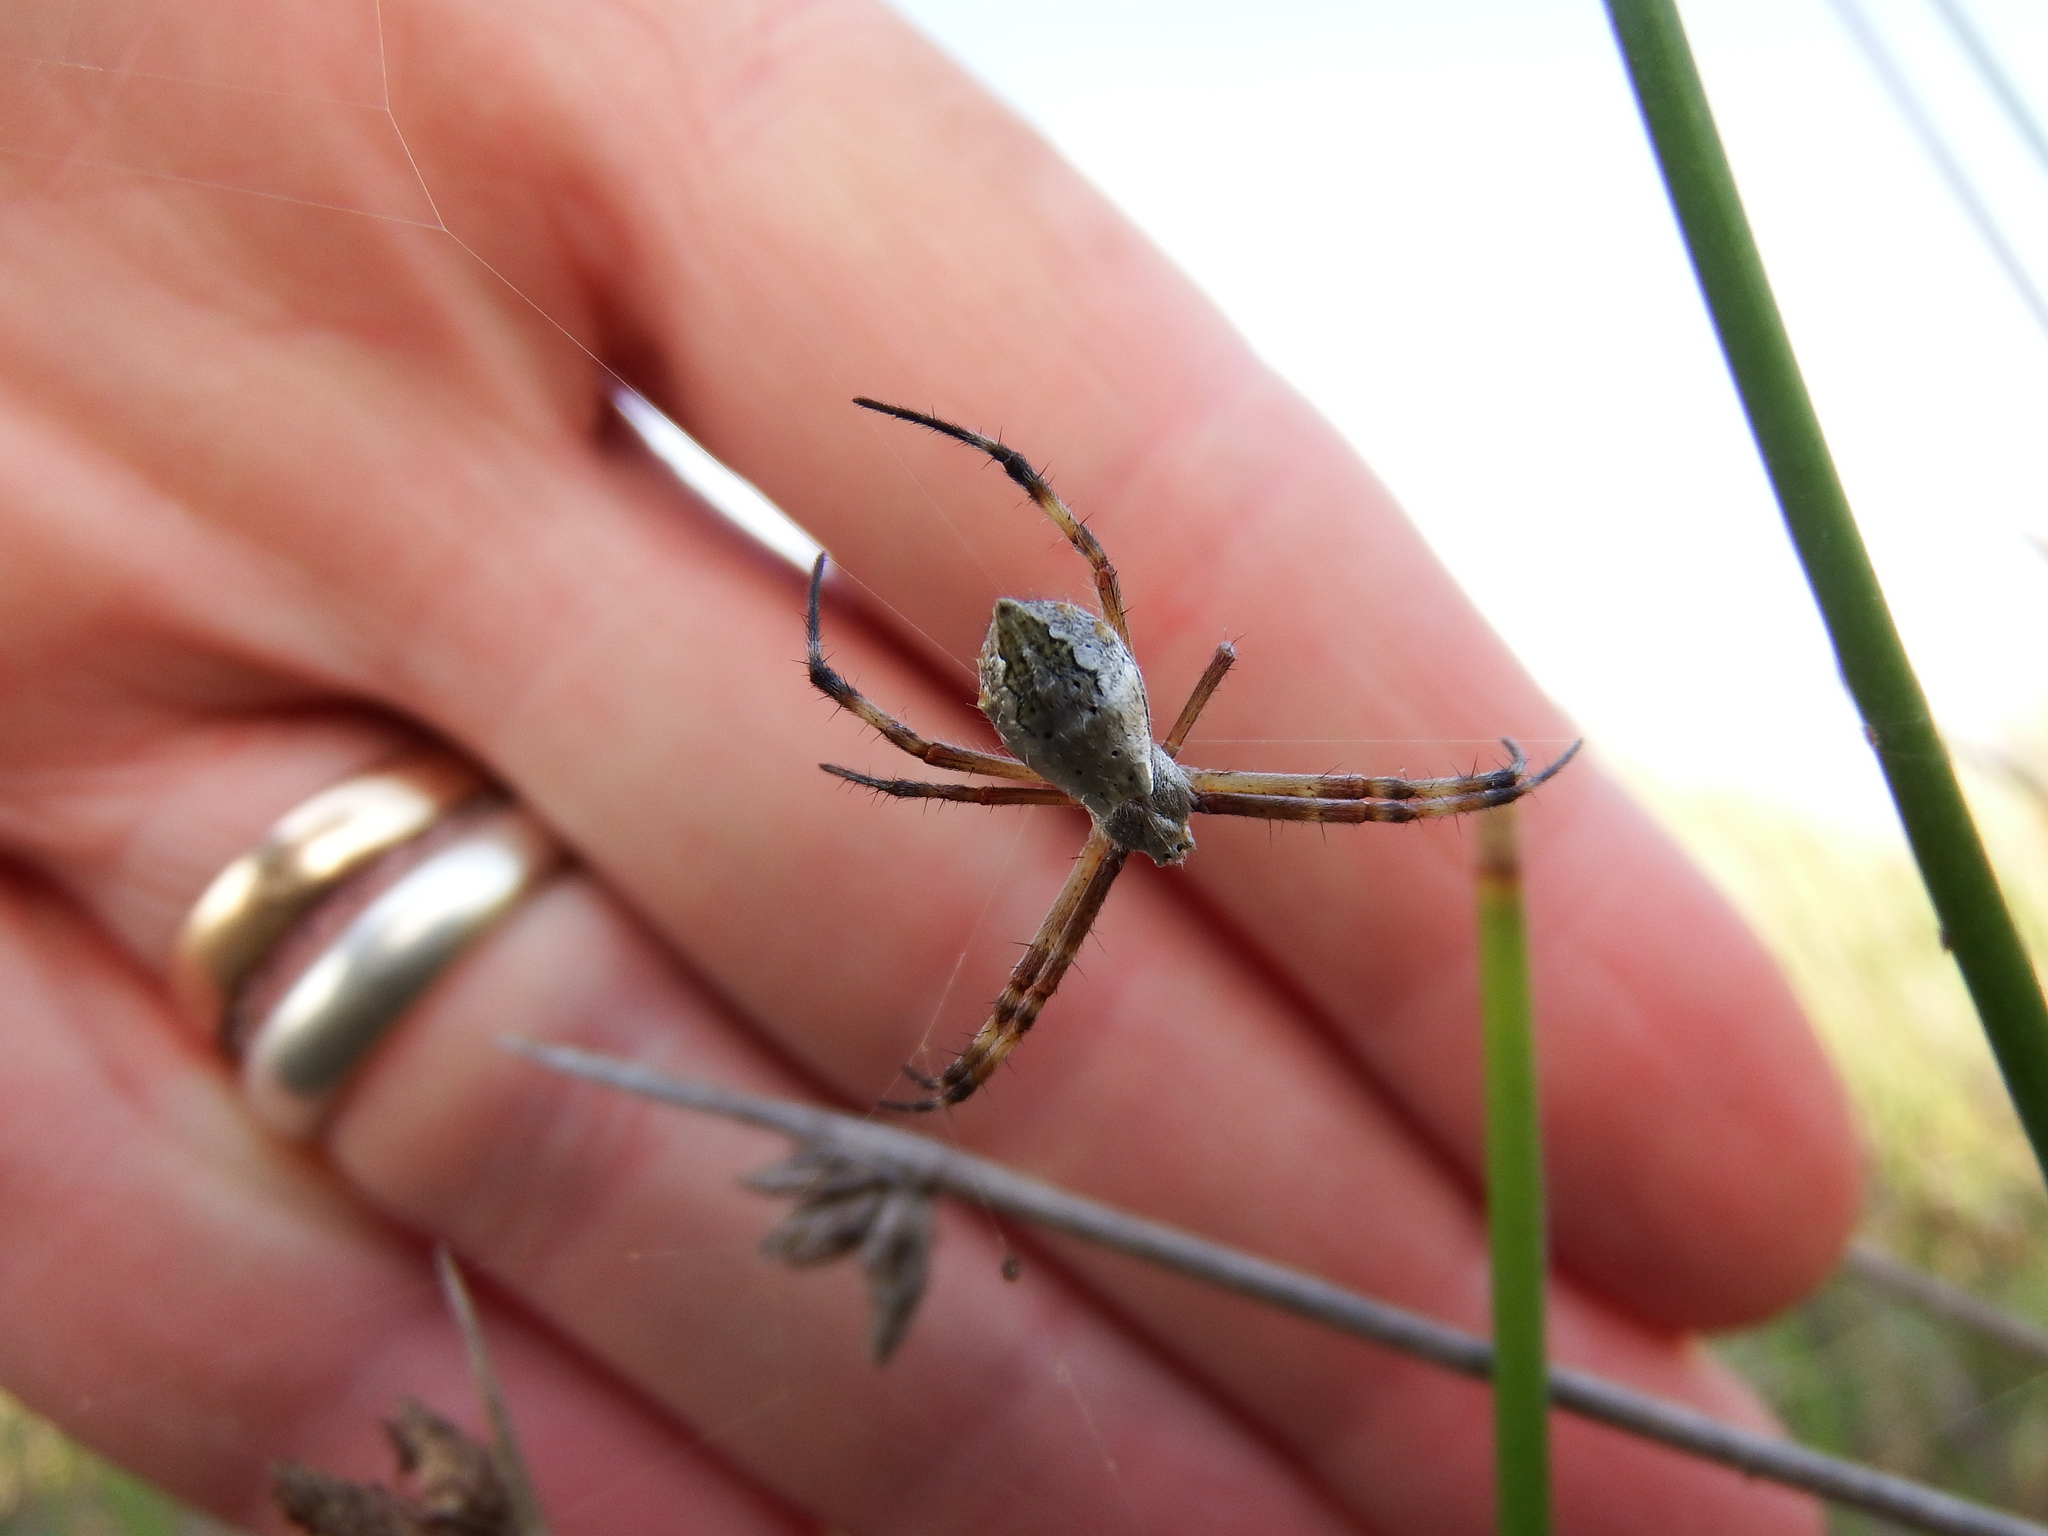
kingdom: Animalia
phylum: Arthropoda
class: Arachnida
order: Araneae
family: Araneidae
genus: Argiope
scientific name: Argiope argentata
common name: Orb weavers
